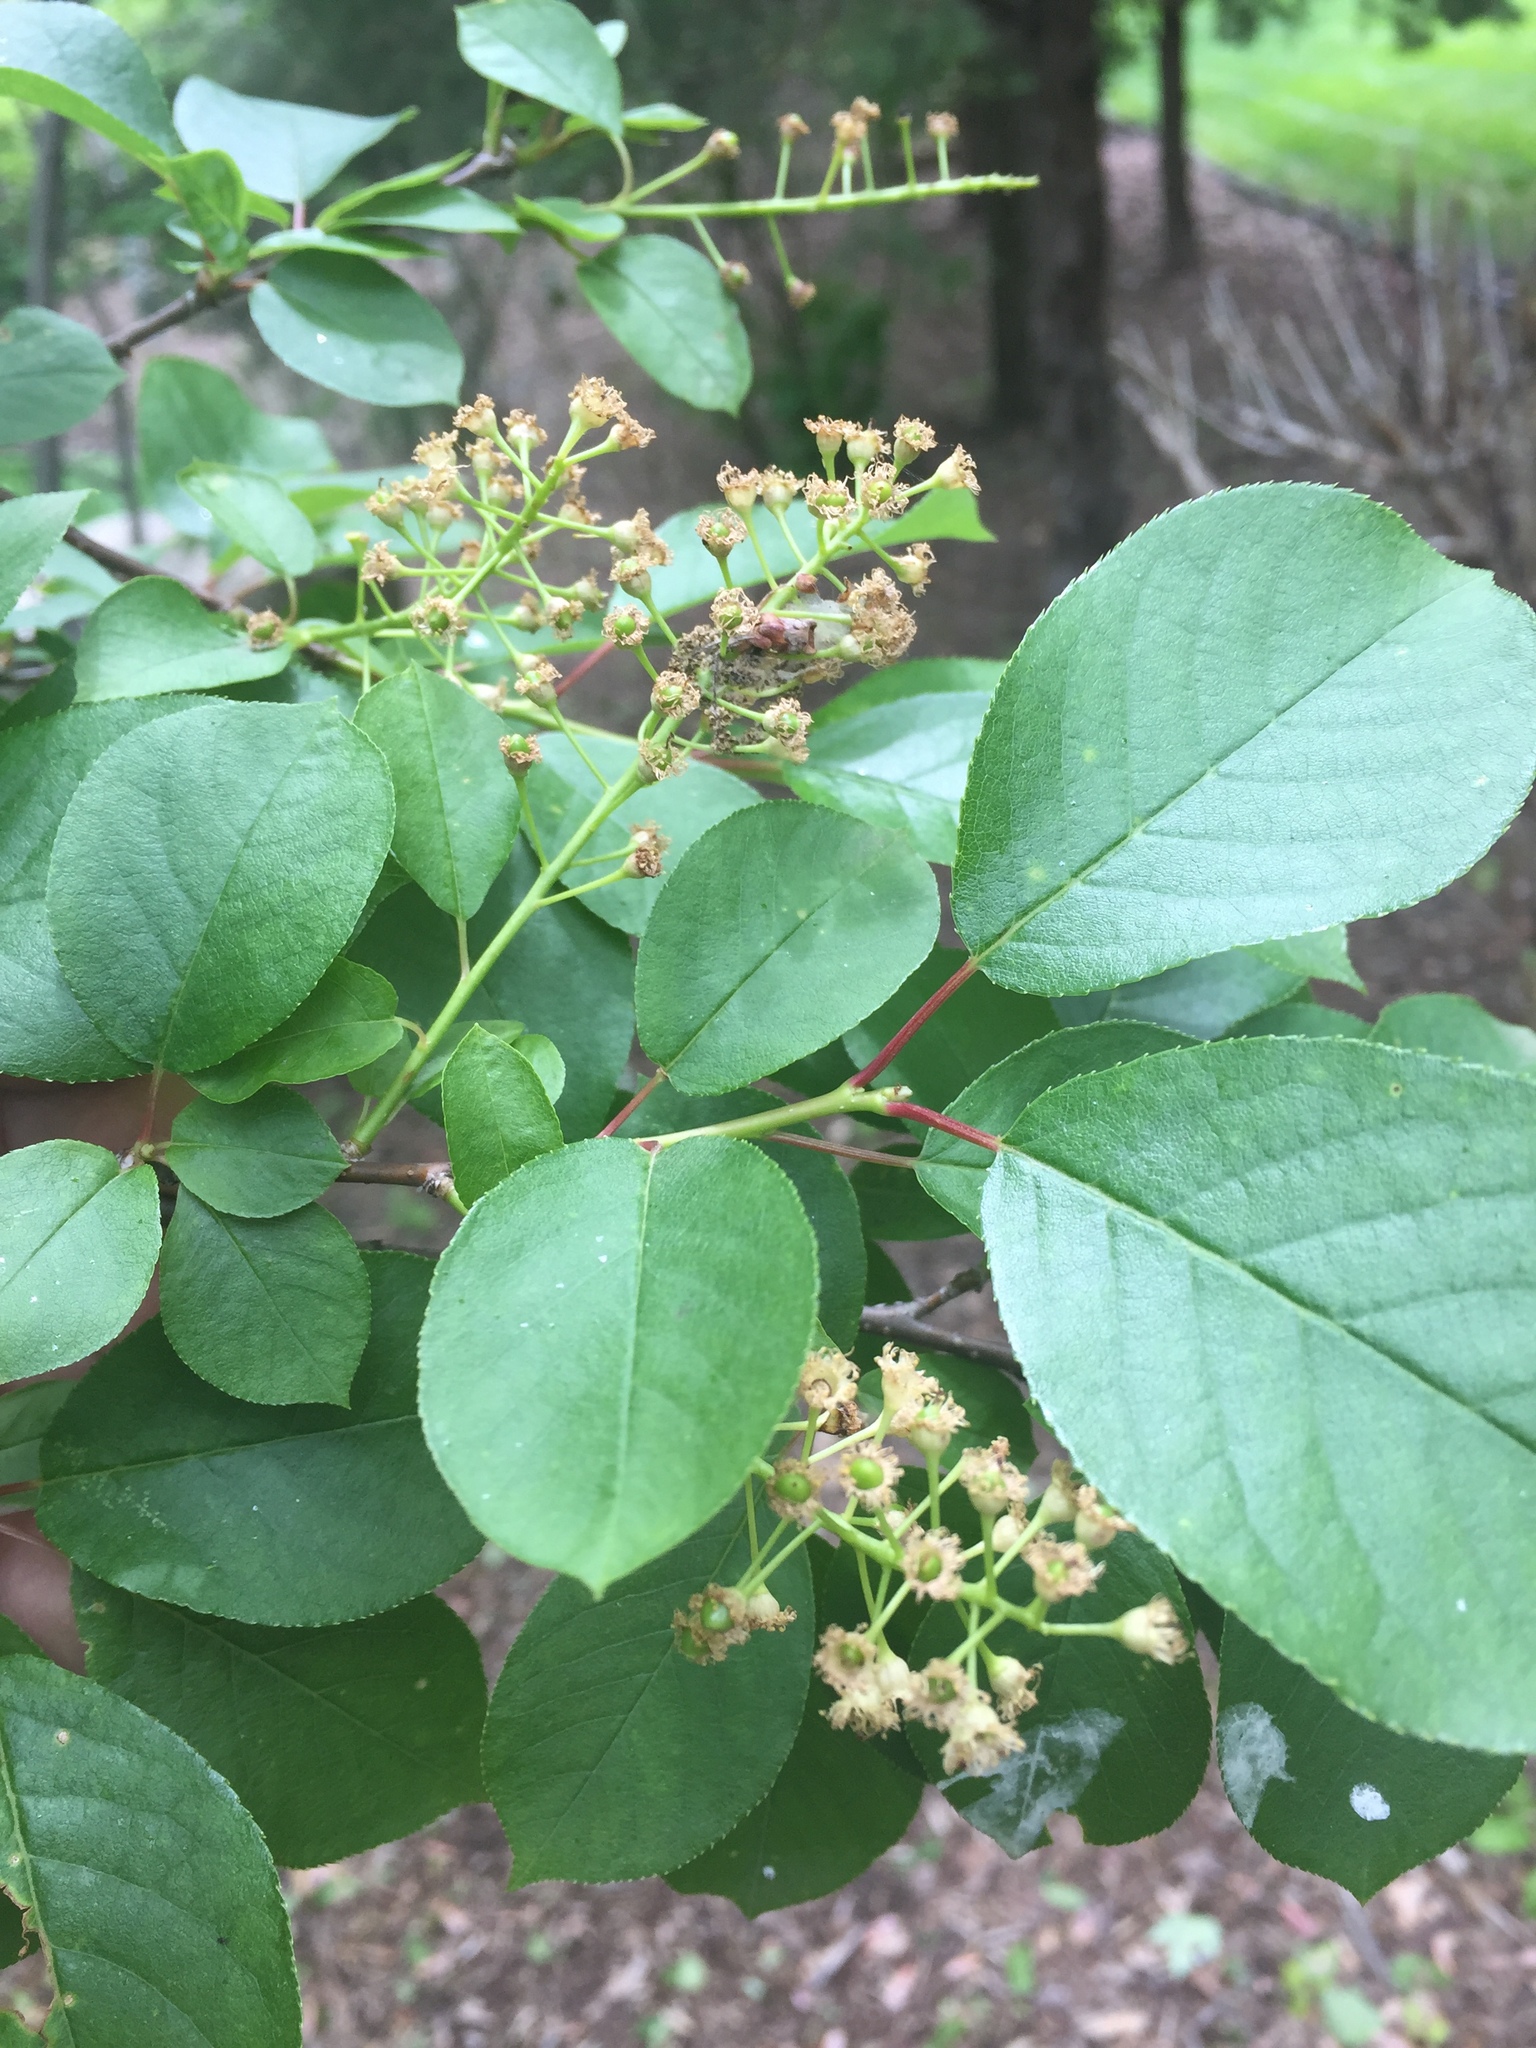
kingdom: Plantae
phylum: Tracheophyta
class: Magnoliopsida
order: Rosales
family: Rosaceae
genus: Prunus
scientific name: Prunus virginiana
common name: Chokecherry
